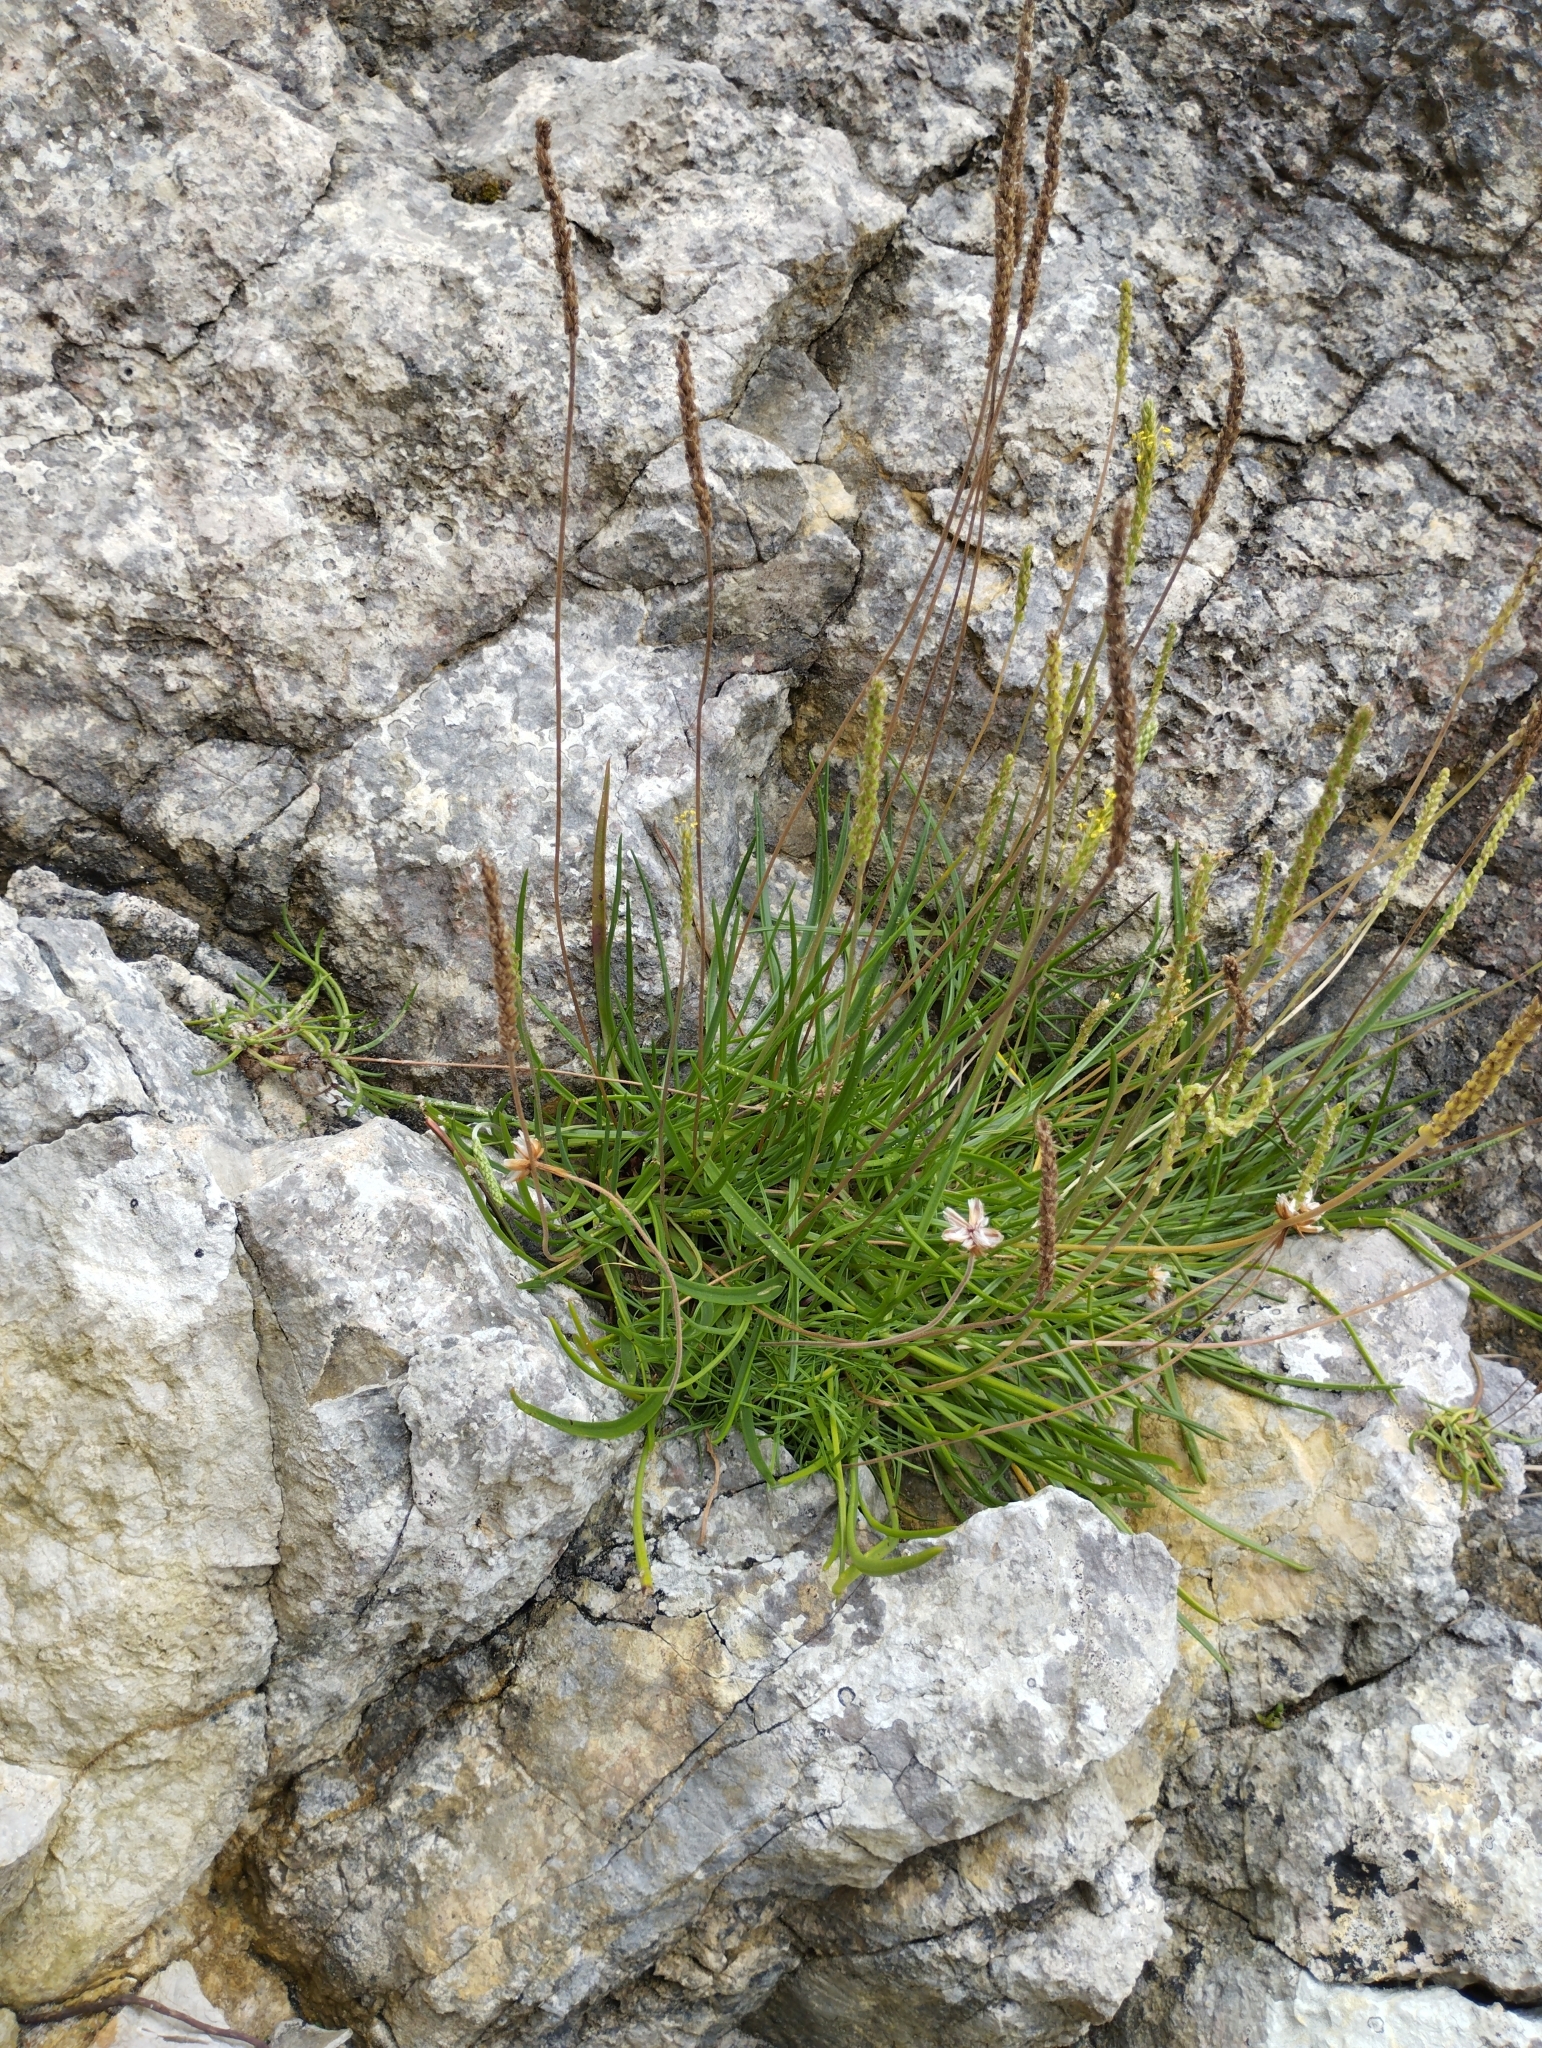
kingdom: Plantae
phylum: Tracheophyta
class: Magnoliopsida
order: Lamiales
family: Plantaginaceae
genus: Plantago
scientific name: Plantago maritima
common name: Sea plantain
